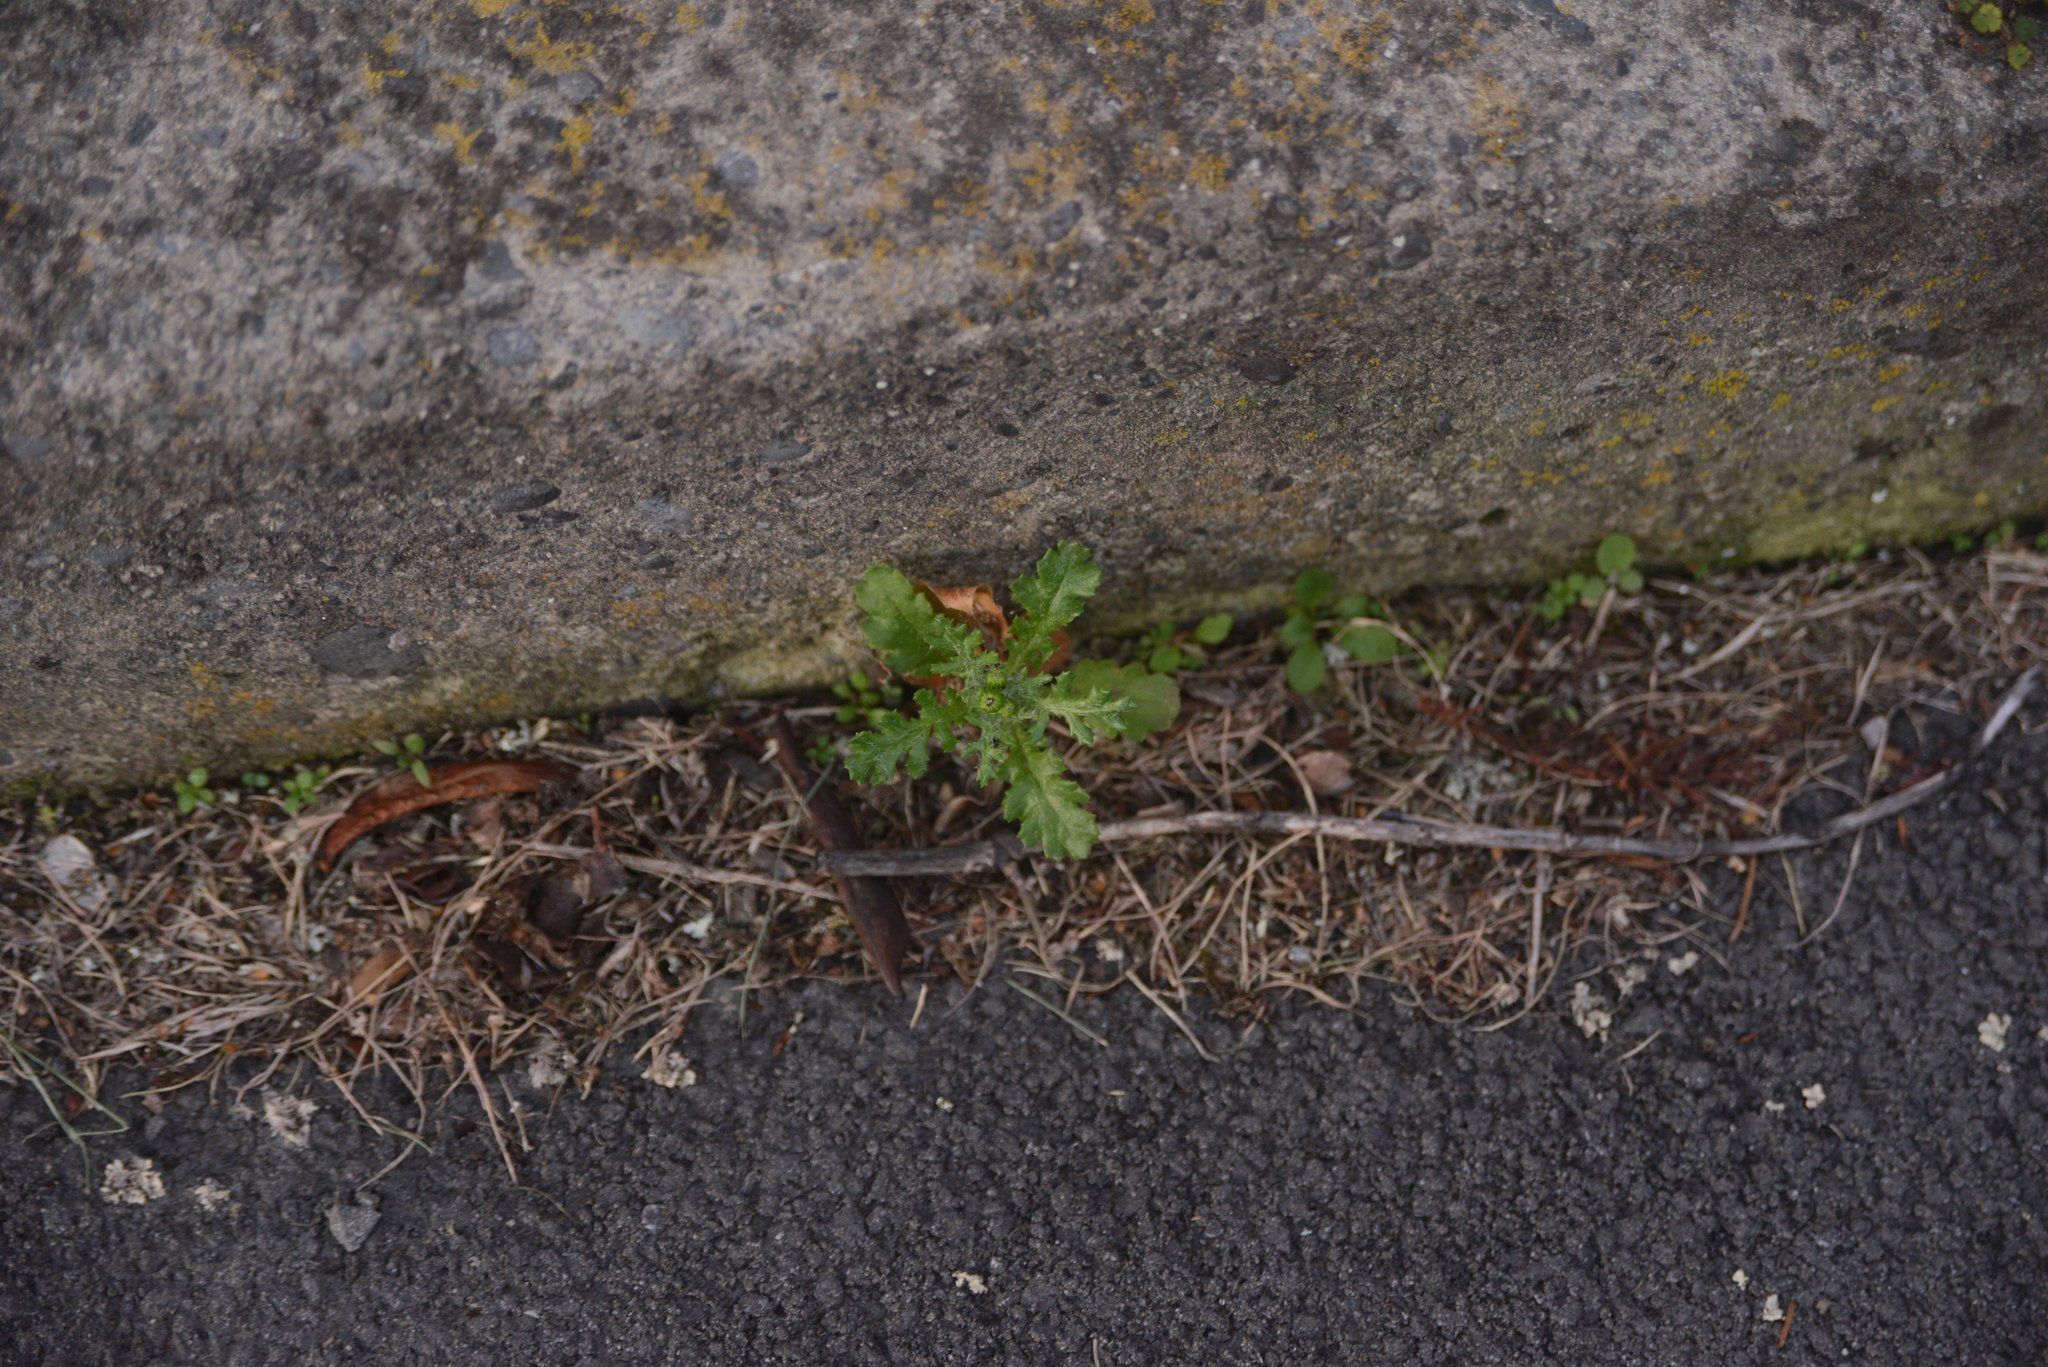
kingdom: Plantae
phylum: Tracheophyta
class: Magnoliopsida
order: Asterales
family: Asteraceae
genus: Senecio
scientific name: Senecio vulgaris
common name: Old-man-in-the-spring
